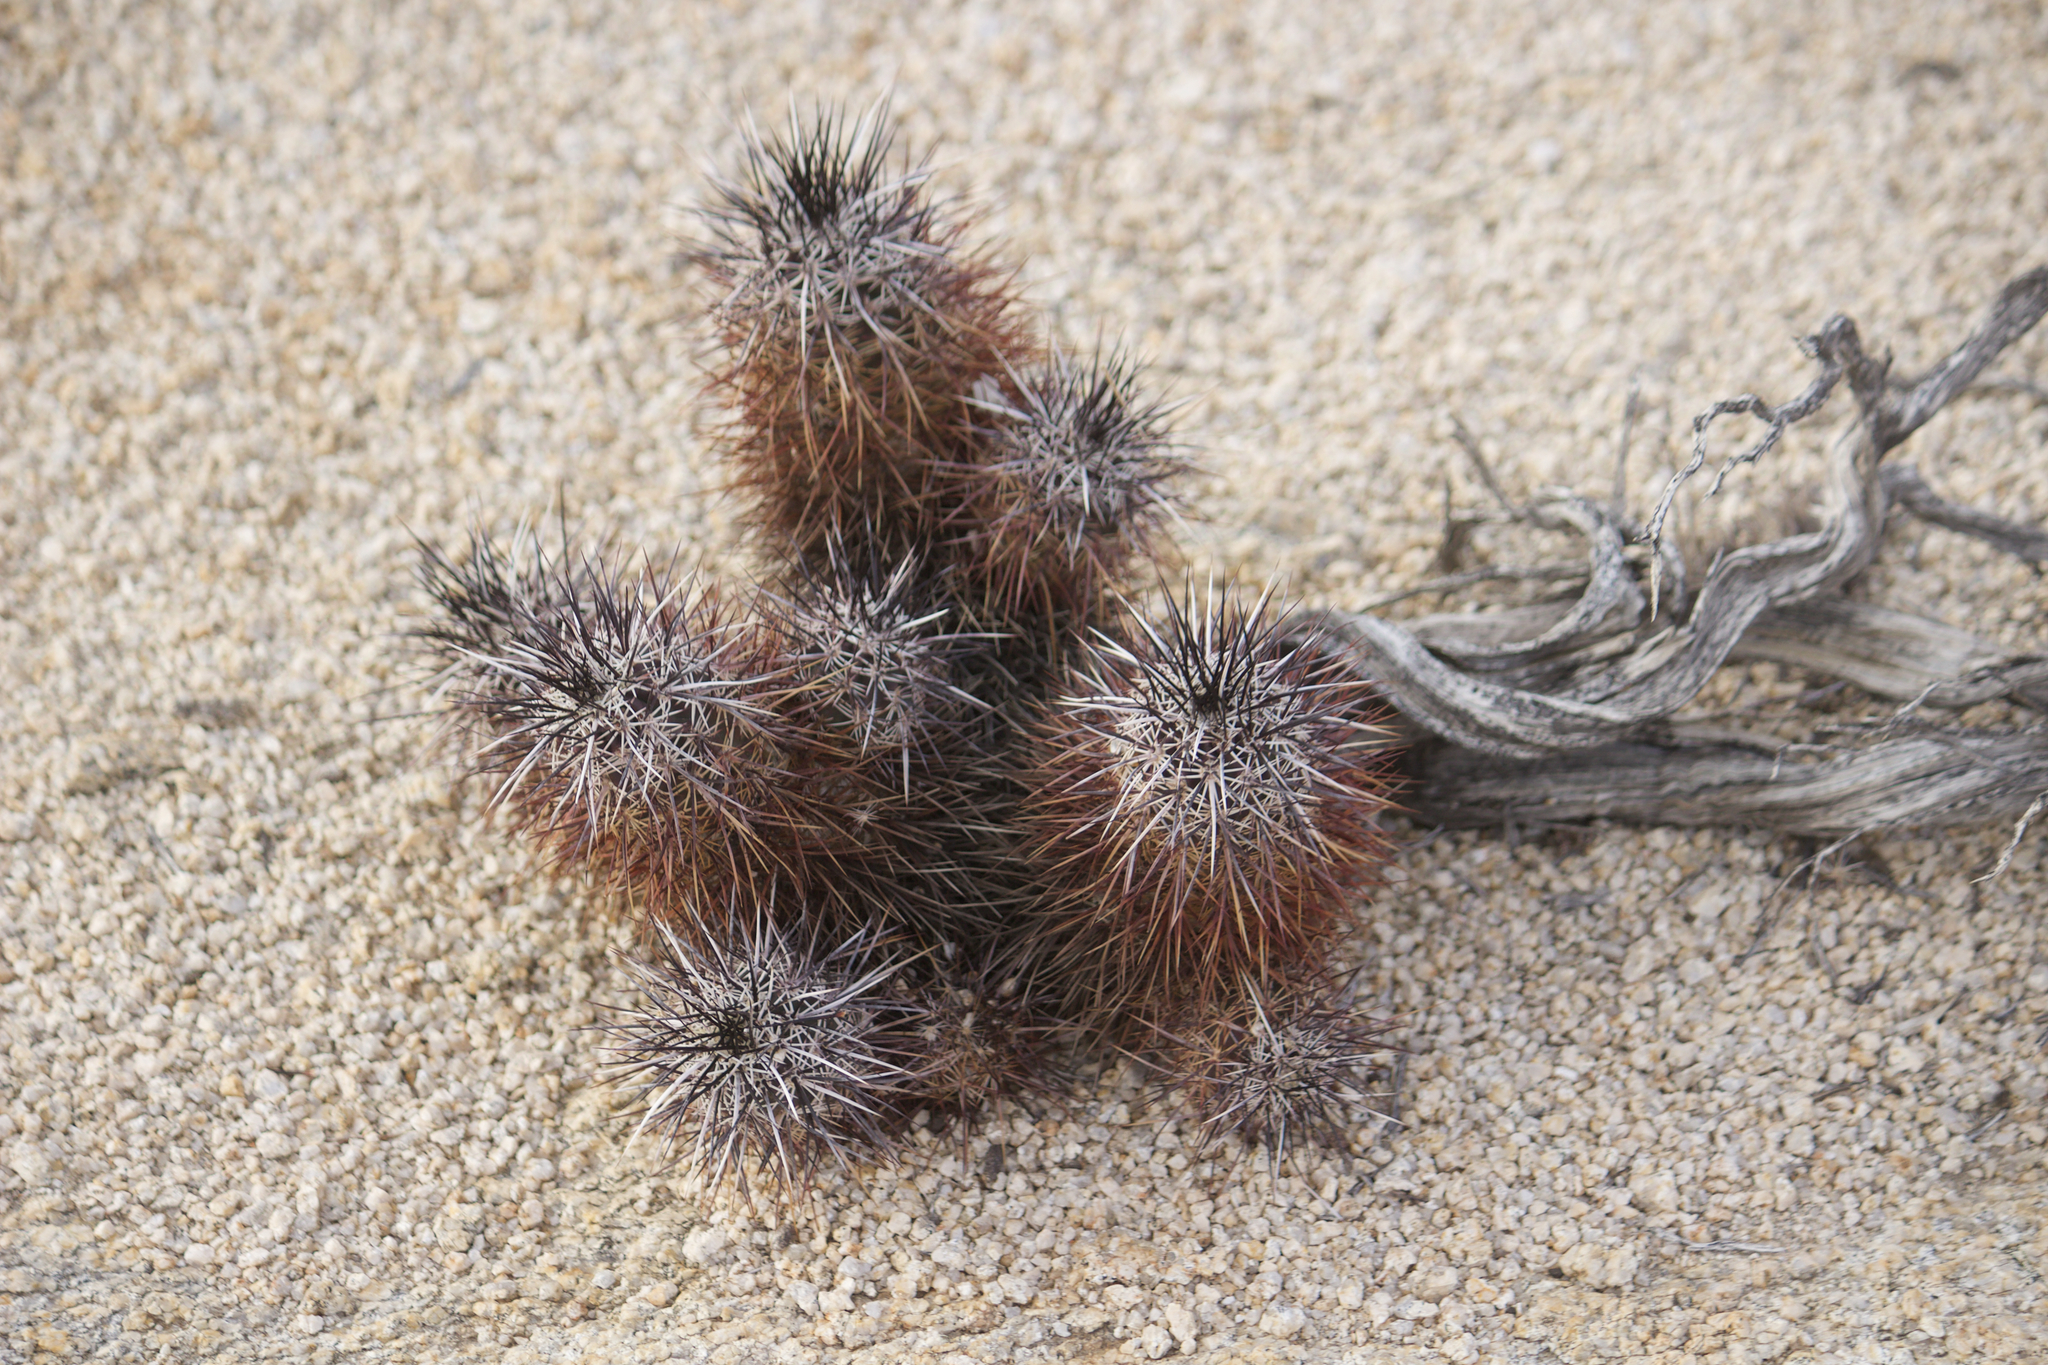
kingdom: Plantae
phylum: Tracheophyta
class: Magnoliopsida
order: Caryophyllales
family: Cactaceae
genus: Echinocereus
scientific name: Echinocereus engelmannii
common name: Engelmann's hedgehog cactus
